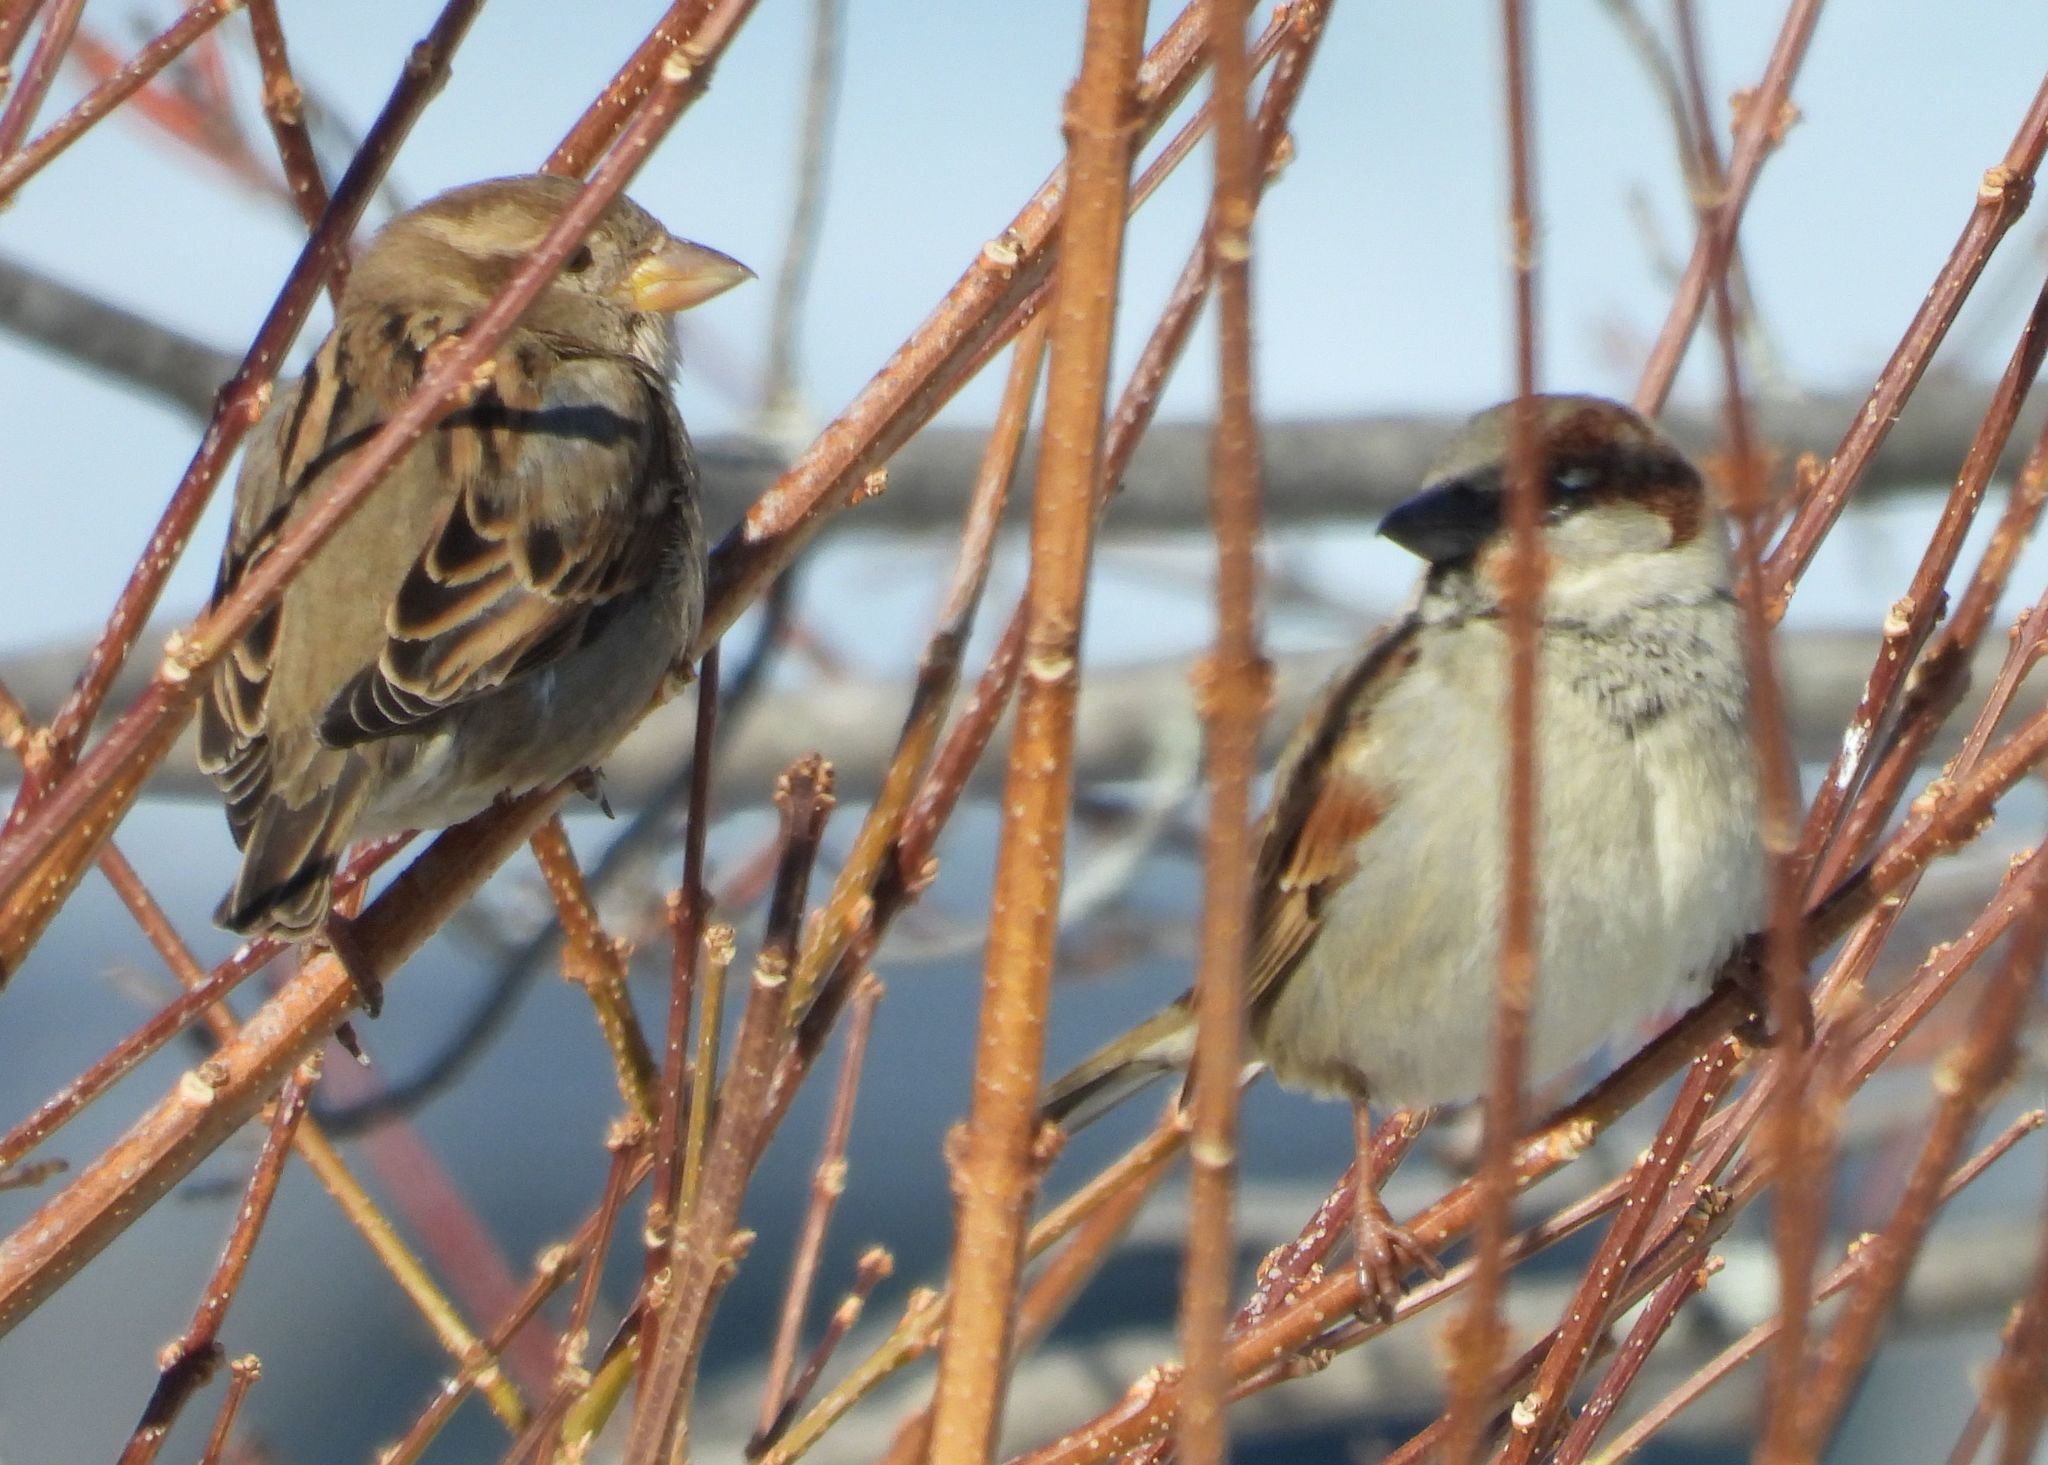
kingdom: Animalia
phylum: Chordata
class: Aves
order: Passeriformes
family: Passeridae
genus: Passer
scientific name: Passer domesticus
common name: House sparrow
